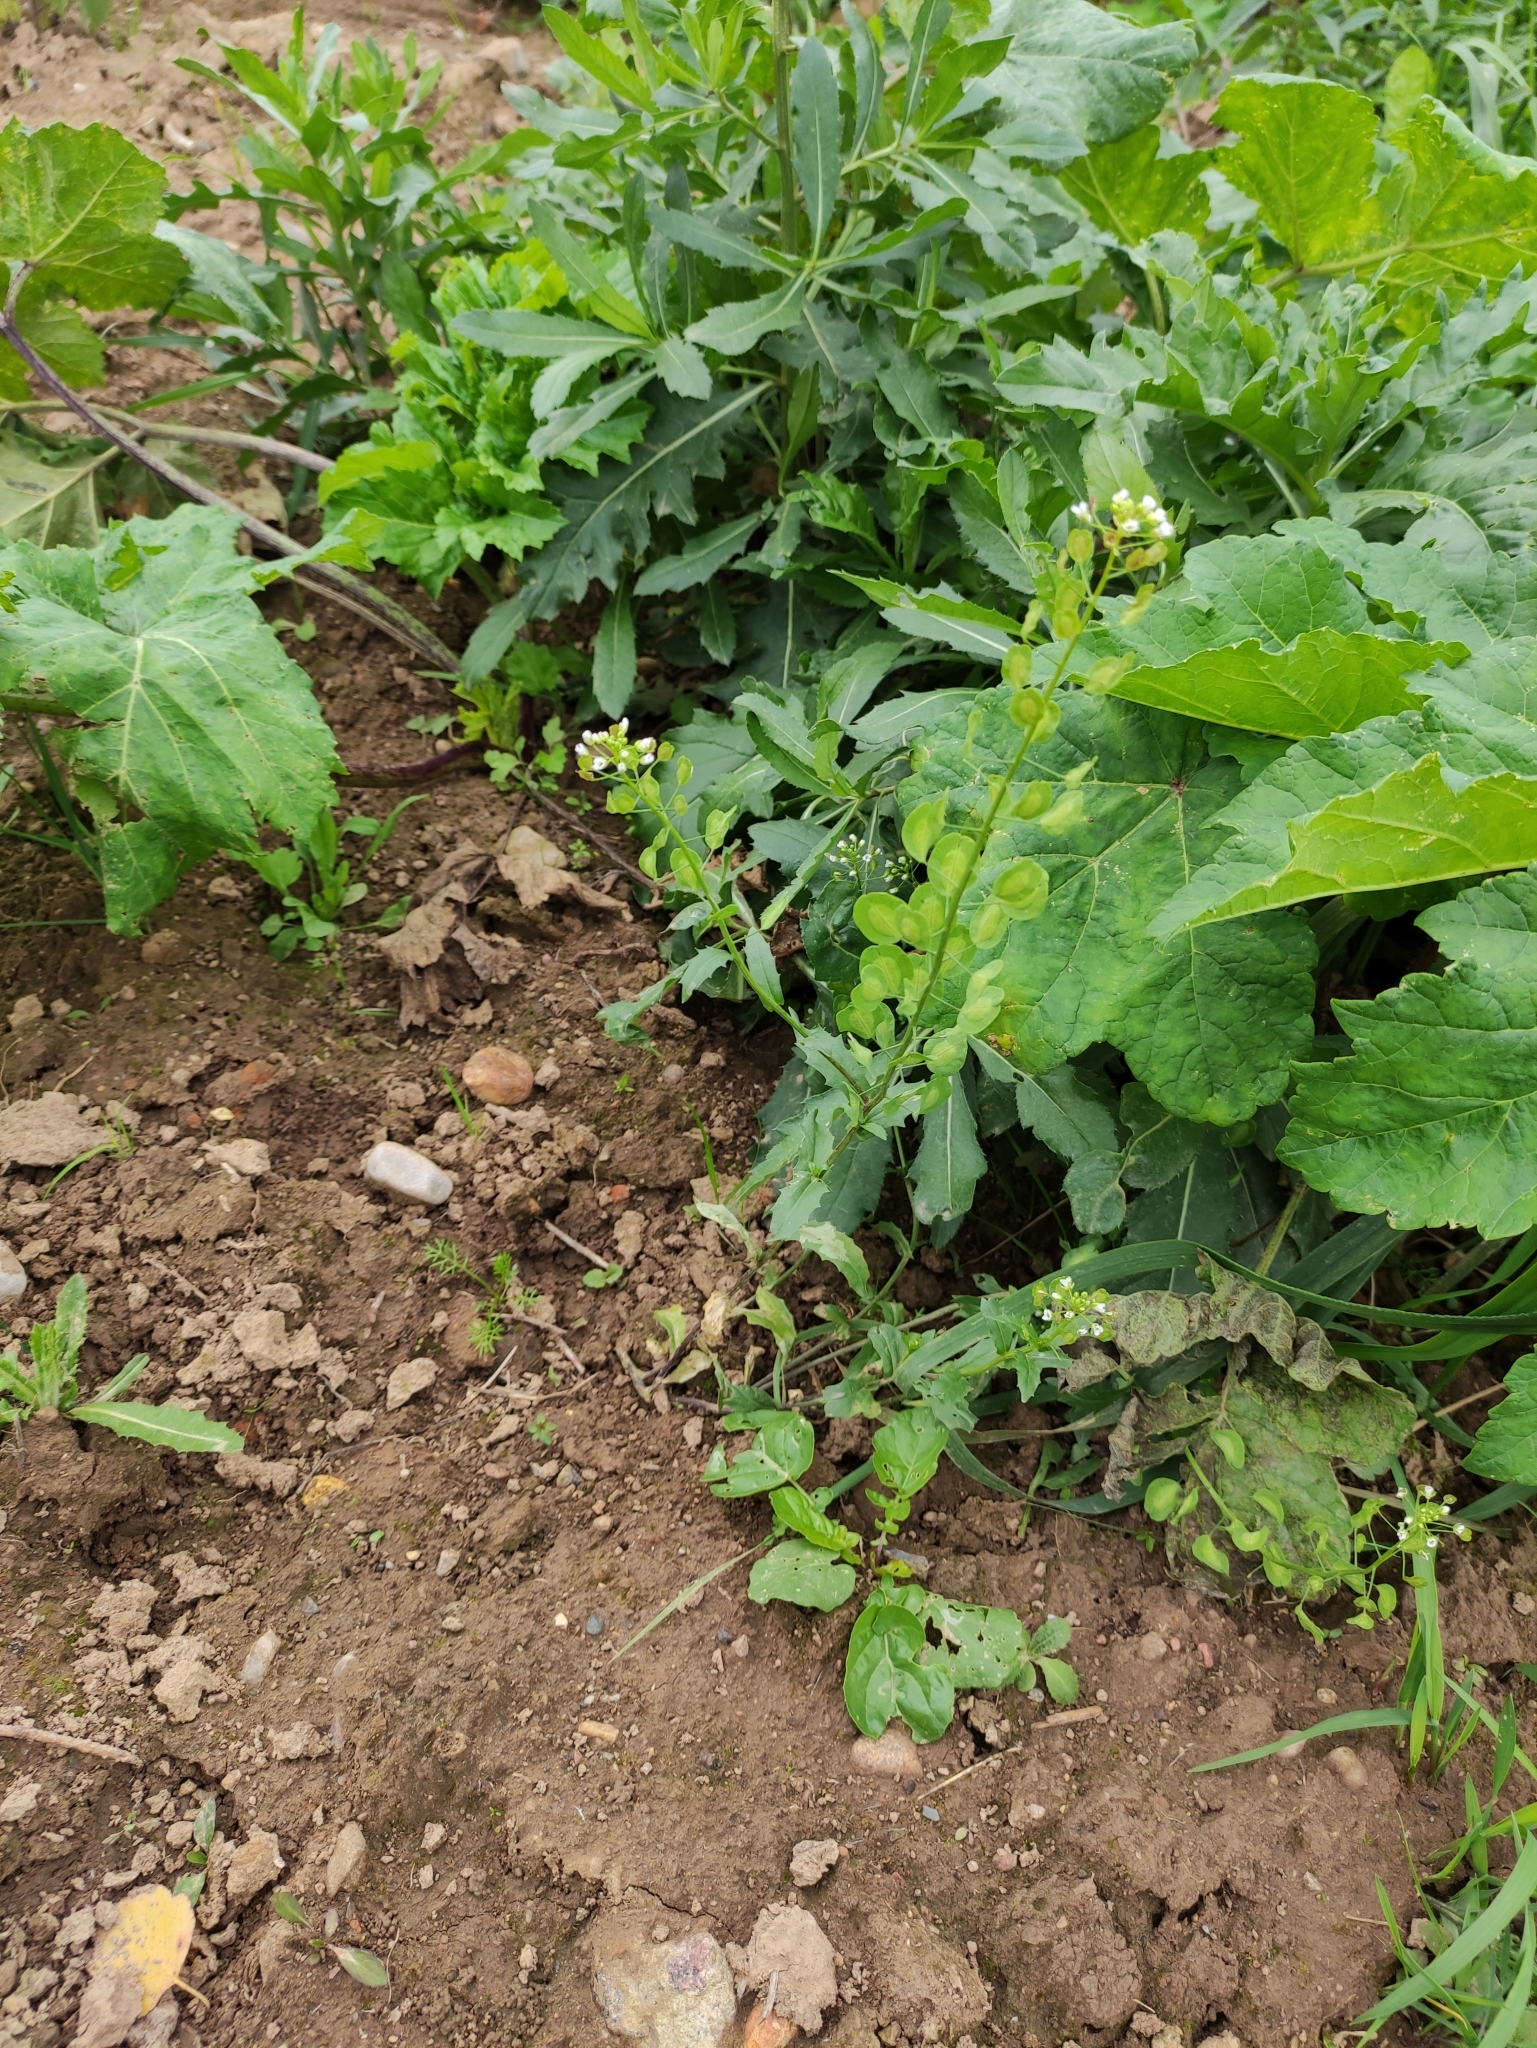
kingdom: Plantae
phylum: Tracheophyta
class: Magnoliopsida
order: Brassicales
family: Brassicaceae
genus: Thlaspi
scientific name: Thlaspi arvense
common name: Field pennycress
